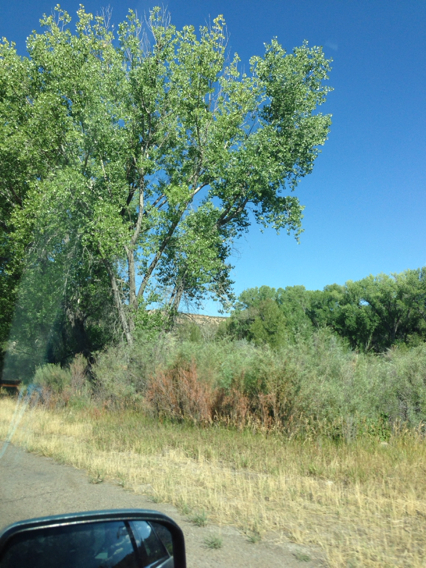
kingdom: Plantae
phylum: Tracheophyta
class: Magnoliopsida
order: Malpighiales
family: Salicaceae
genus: Populus
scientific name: Populus fremontii
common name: Fremont's cottonwood
